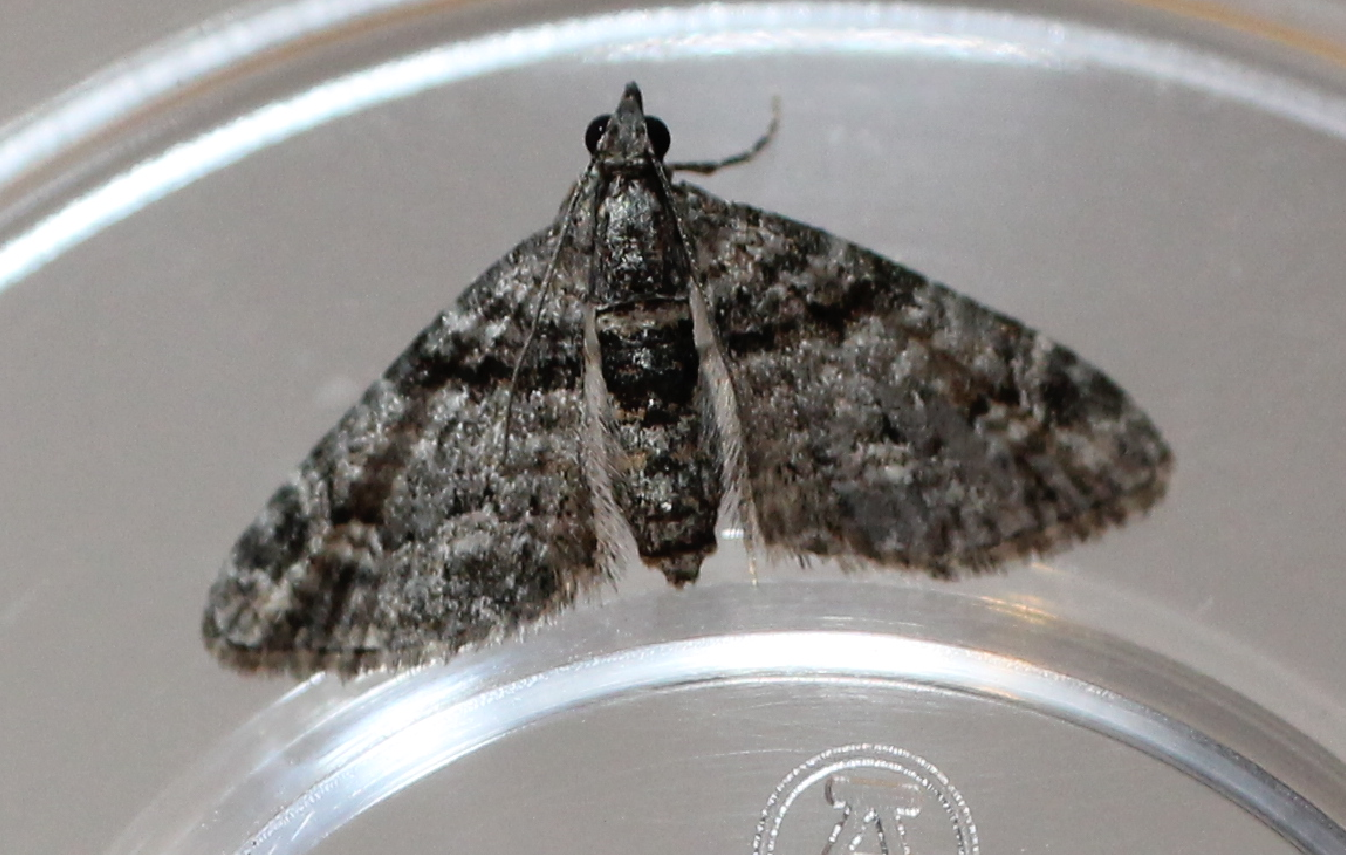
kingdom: Animalia
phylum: Arthropoda
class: Insecta
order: Lepidoptera
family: Geometridae
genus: Phrissogonus
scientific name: Phrissogonus laticostata
